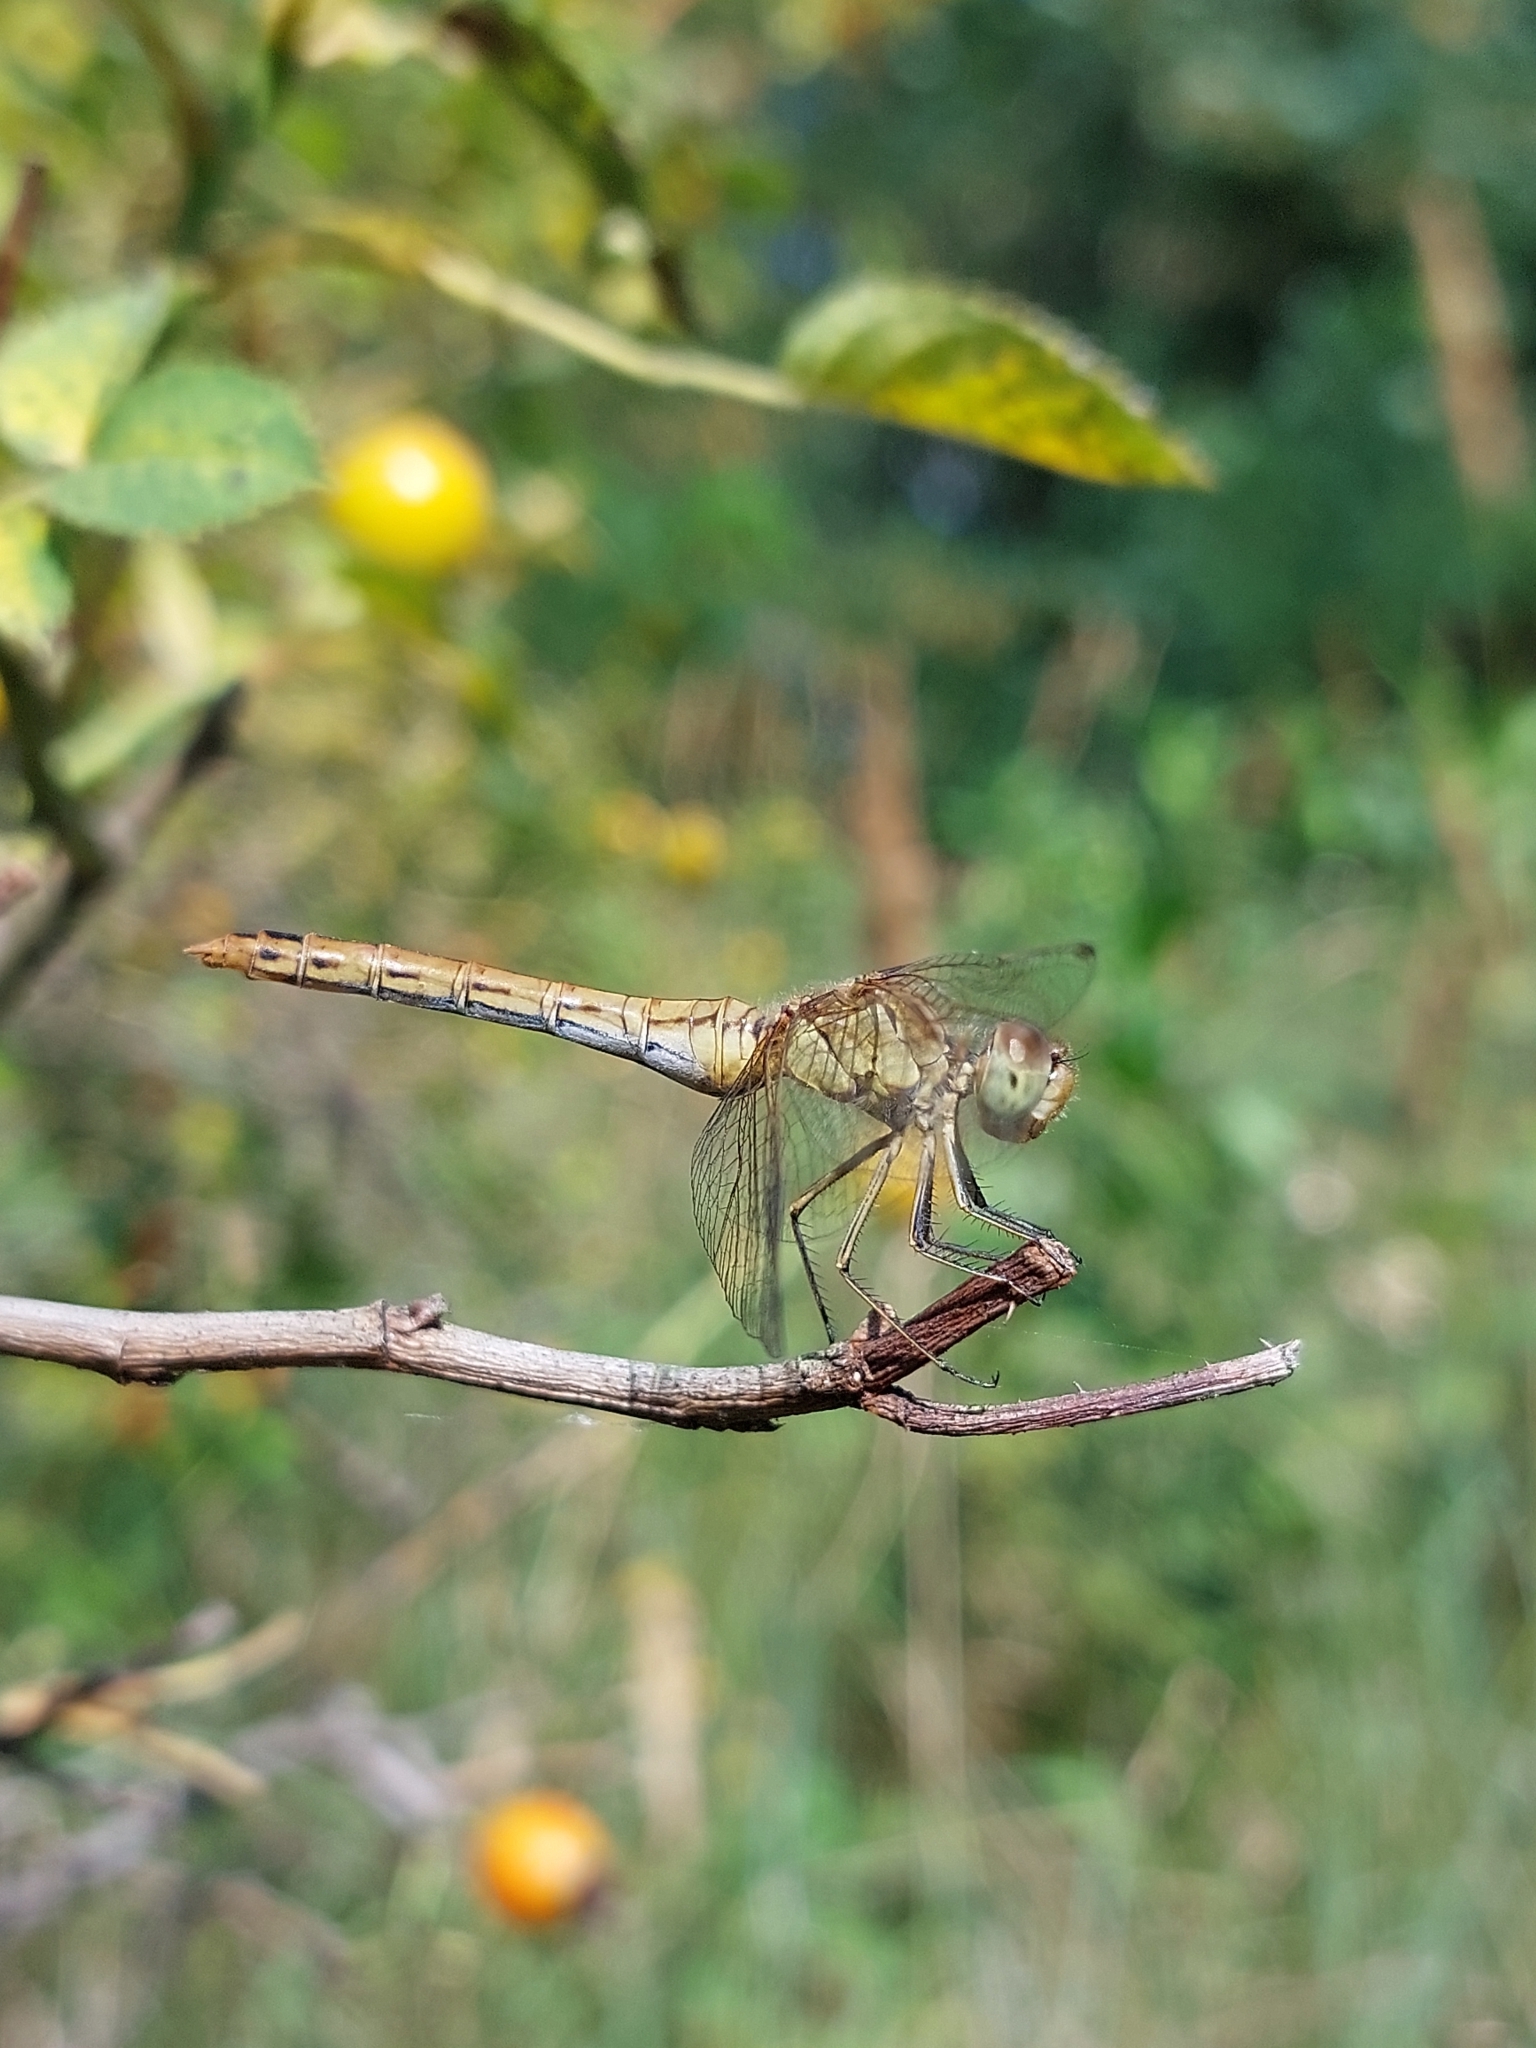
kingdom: Animalia
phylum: Arthropoda
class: Insecta
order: Odonata
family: Libellulidae
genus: Sympetrum
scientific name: Sympetrum meridionale
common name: Southern darter
